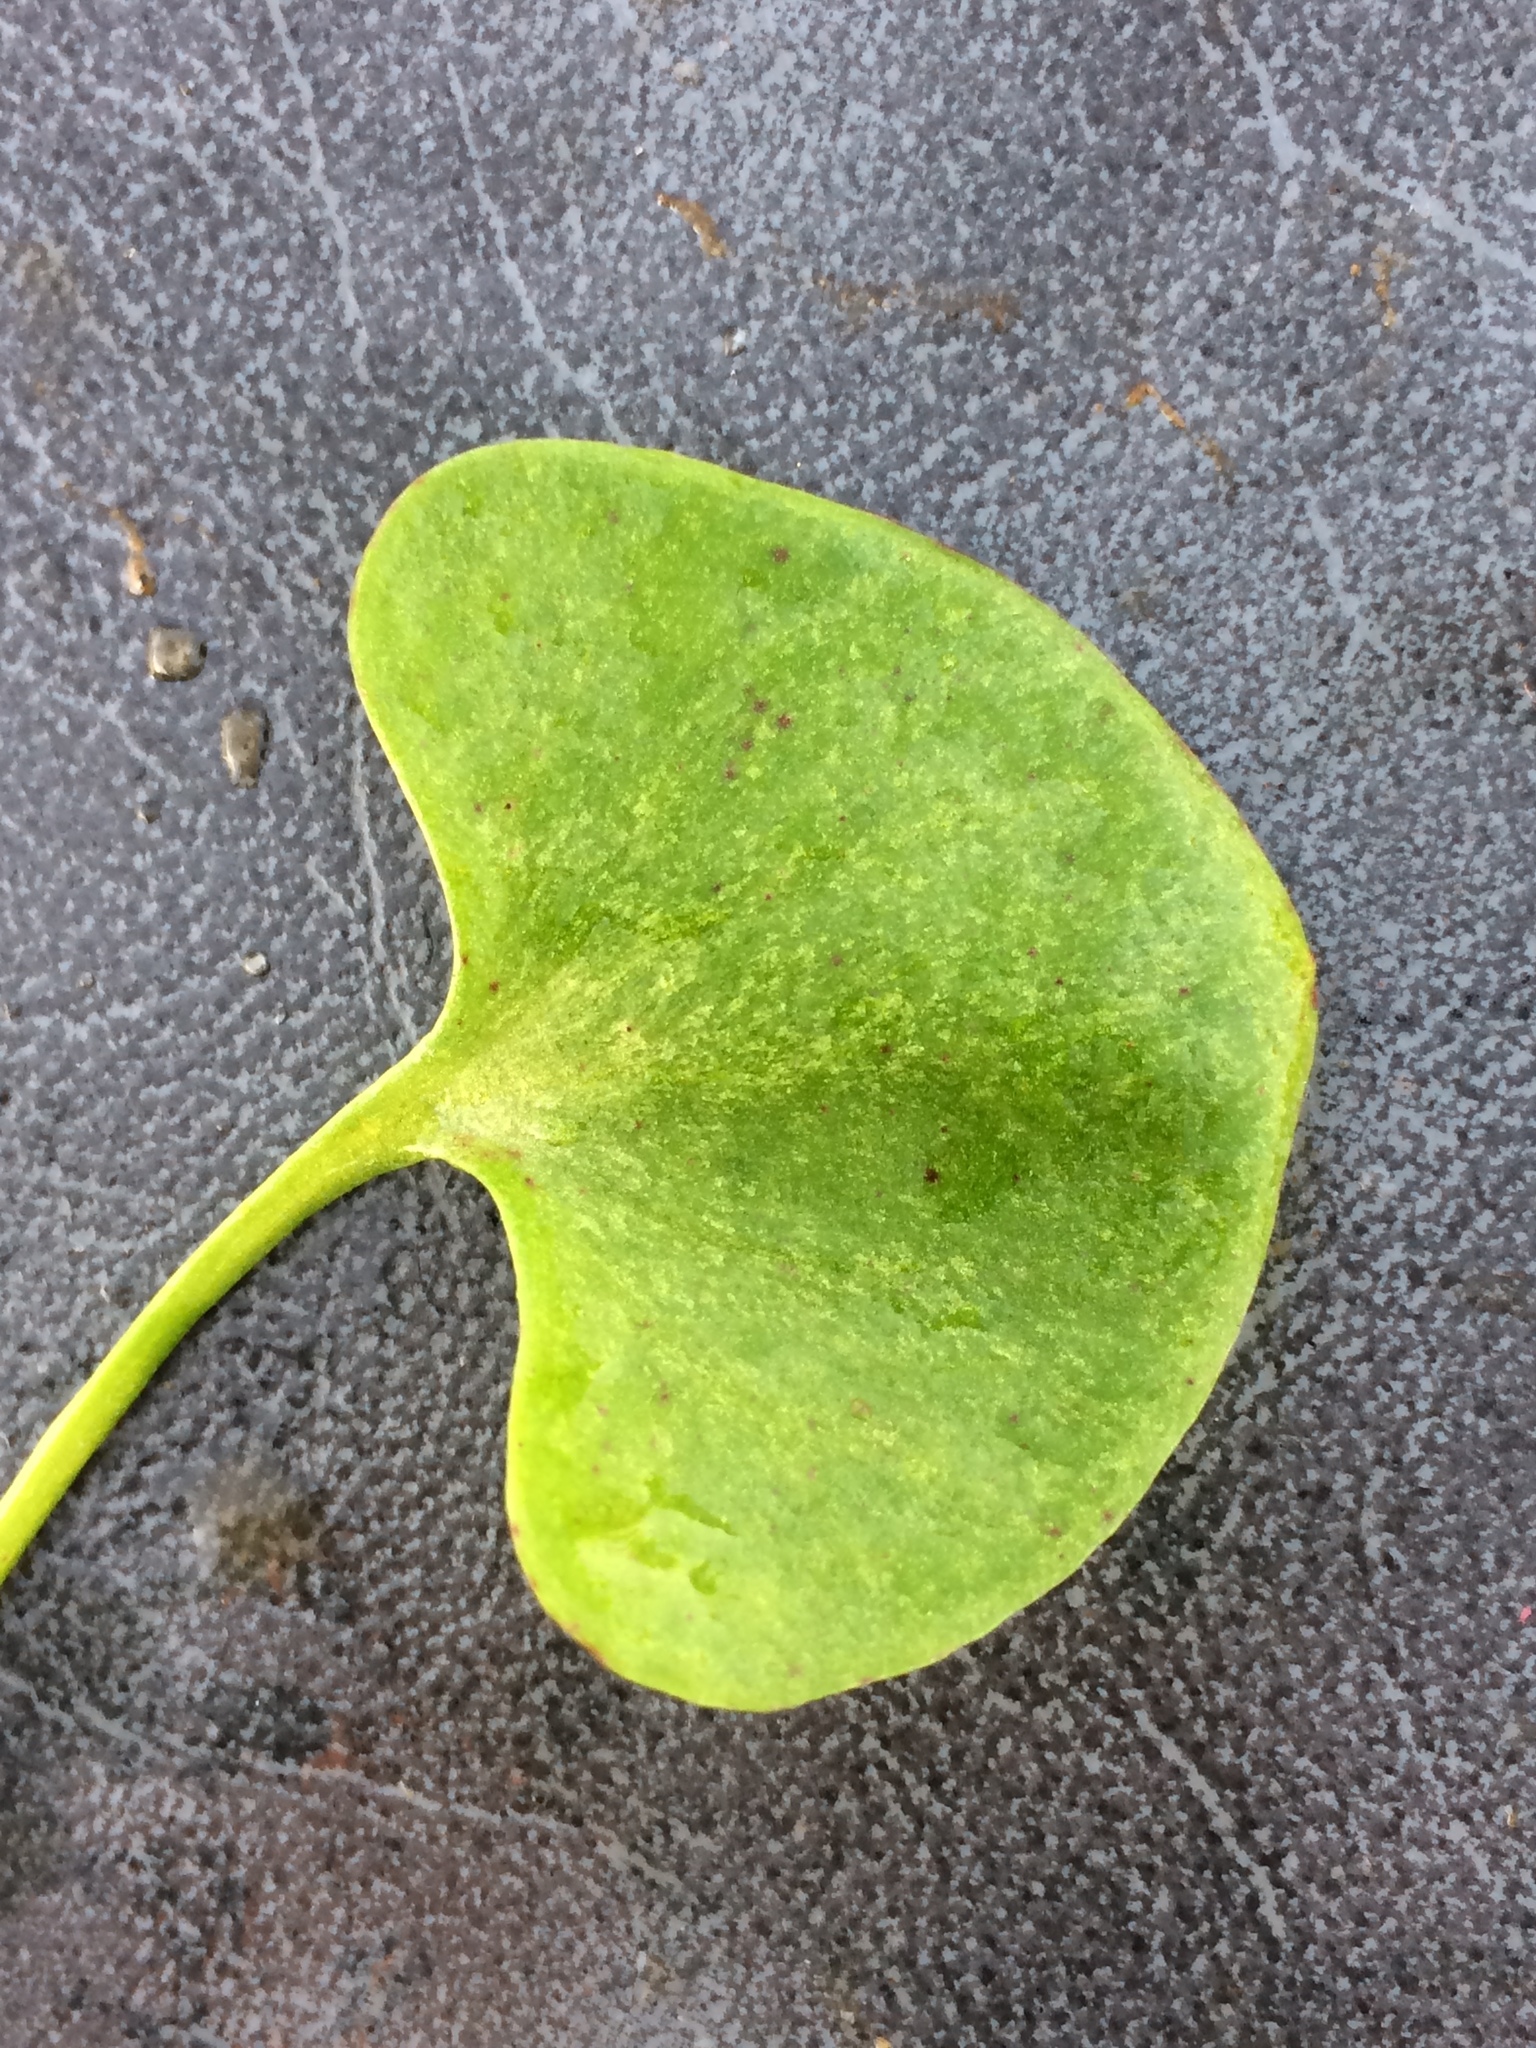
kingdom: Plantae
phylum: Tracheophyta
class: Magnoliopsida
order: Caryophyllales
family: Montiaceae
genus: Claytonia
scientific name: Claytonia perfoliata
